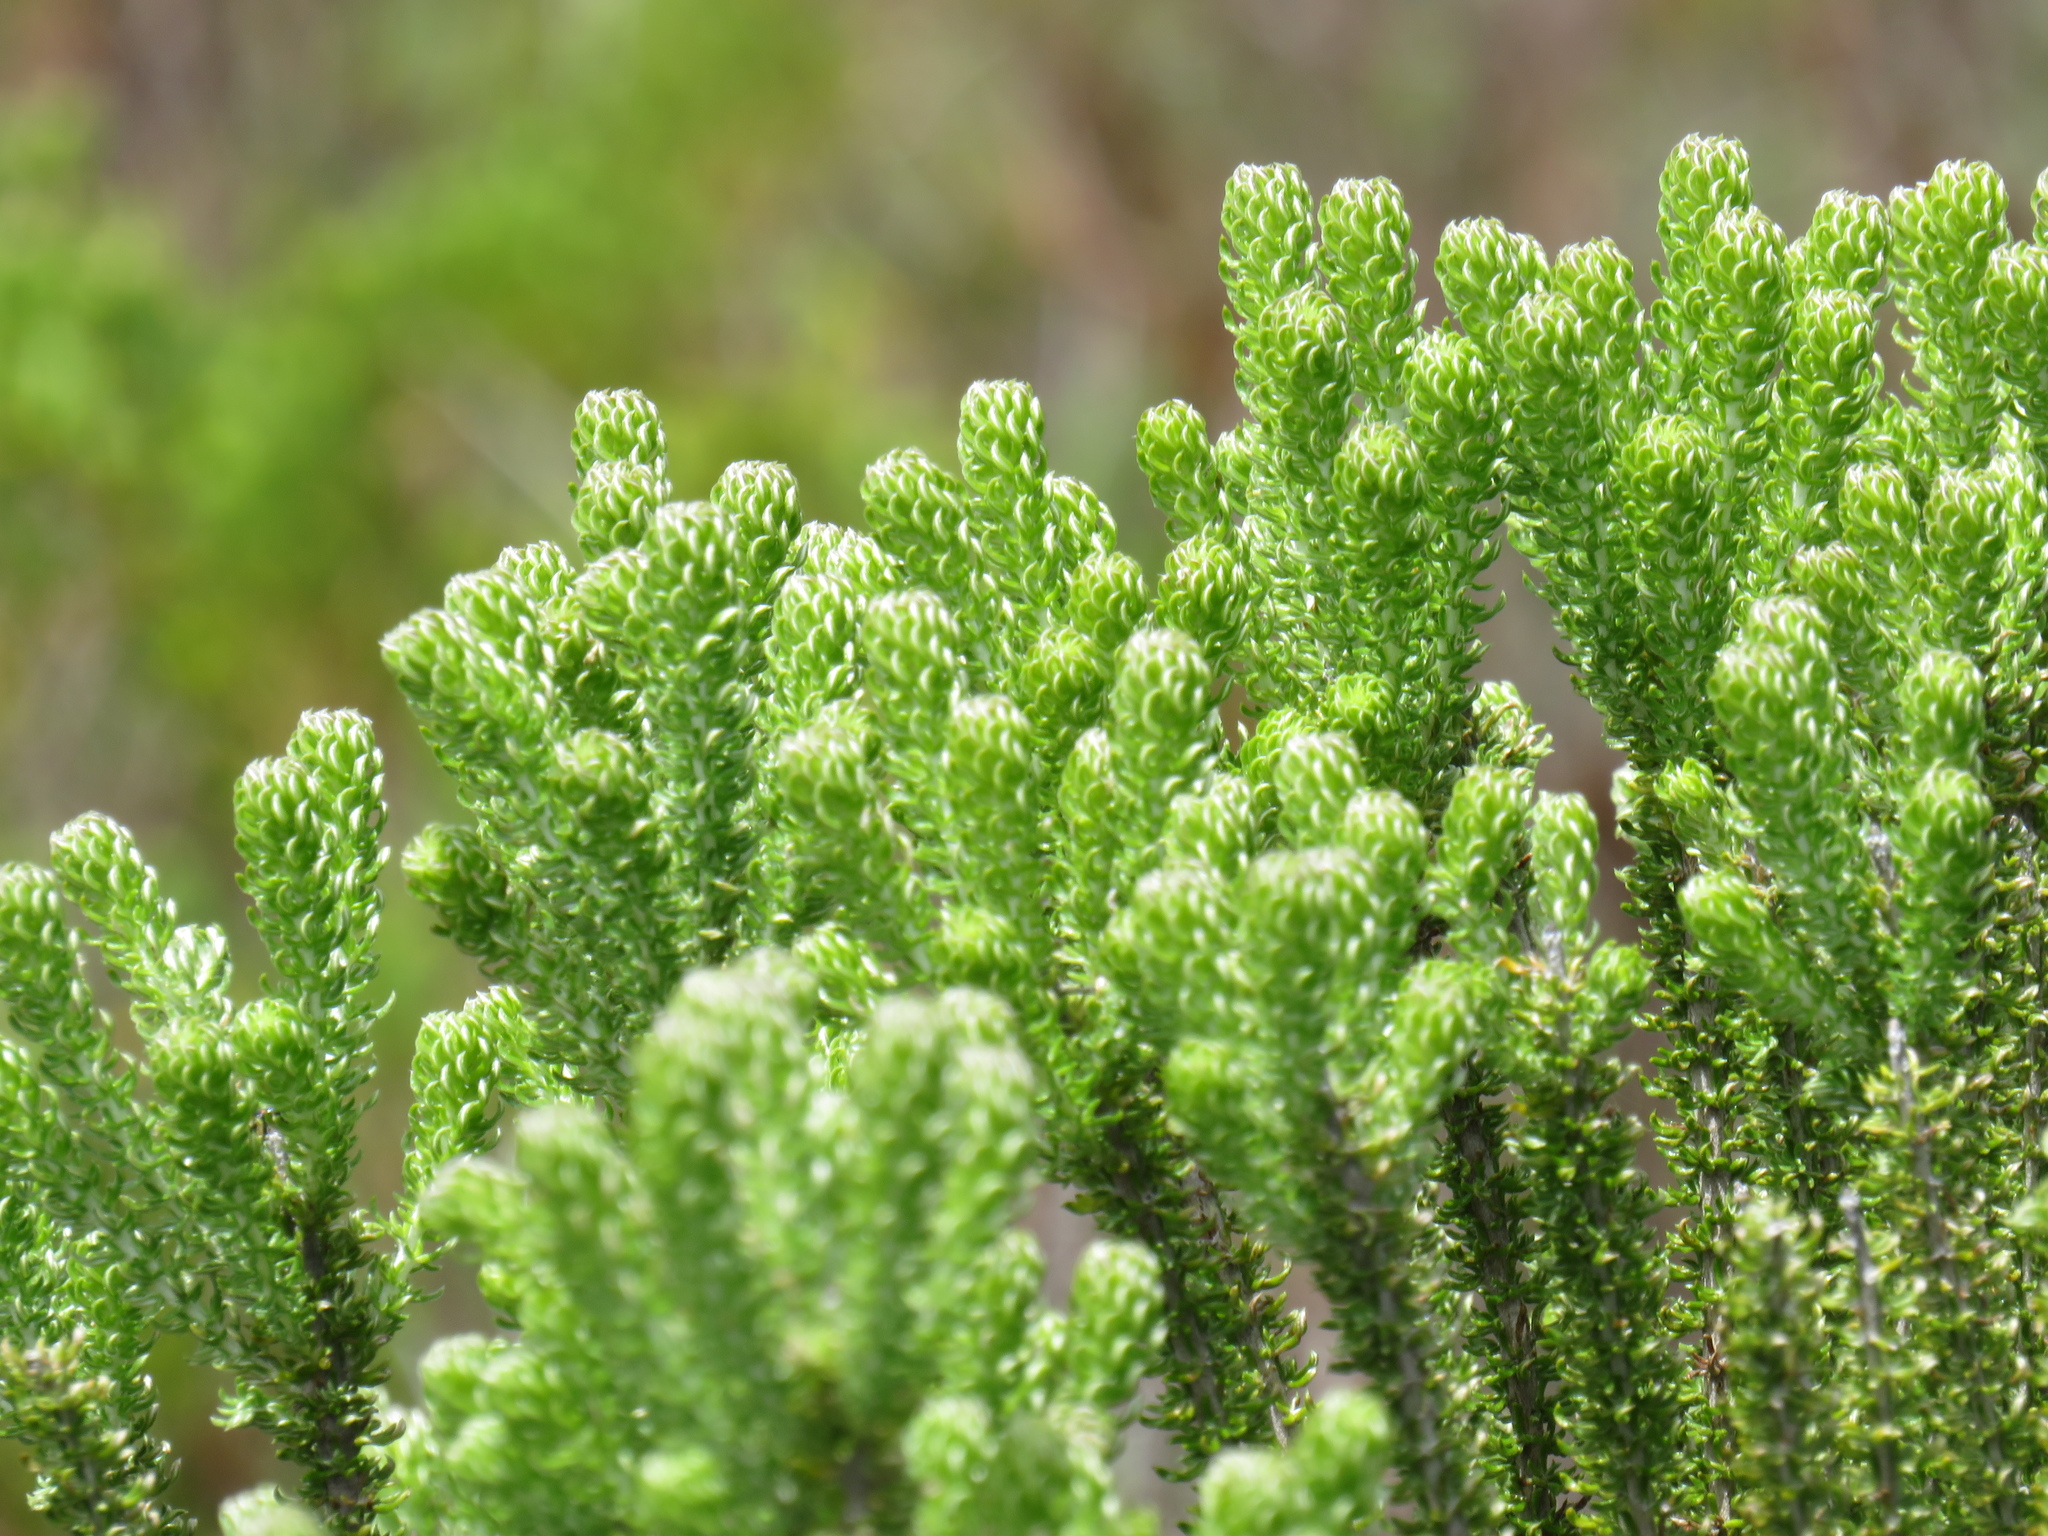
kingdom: Plantae
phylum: Tracheophyta
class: Magnoliopsida
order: Asterales
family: Asteraceae
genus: Metalasia
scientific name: Metalasia muricata
